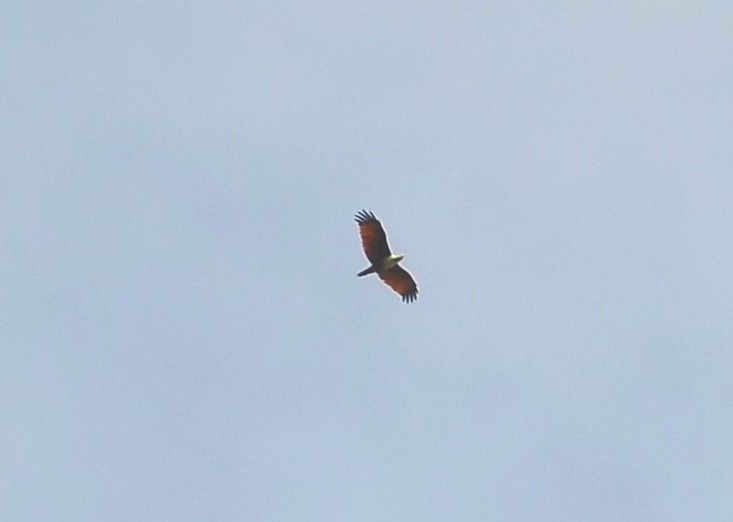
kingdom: Animalia
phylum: Chordata
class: Aves
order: Accipitriformes
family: Accipitridae
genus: Haliastur
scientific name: Haliastur indus
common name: Brahminy kite
